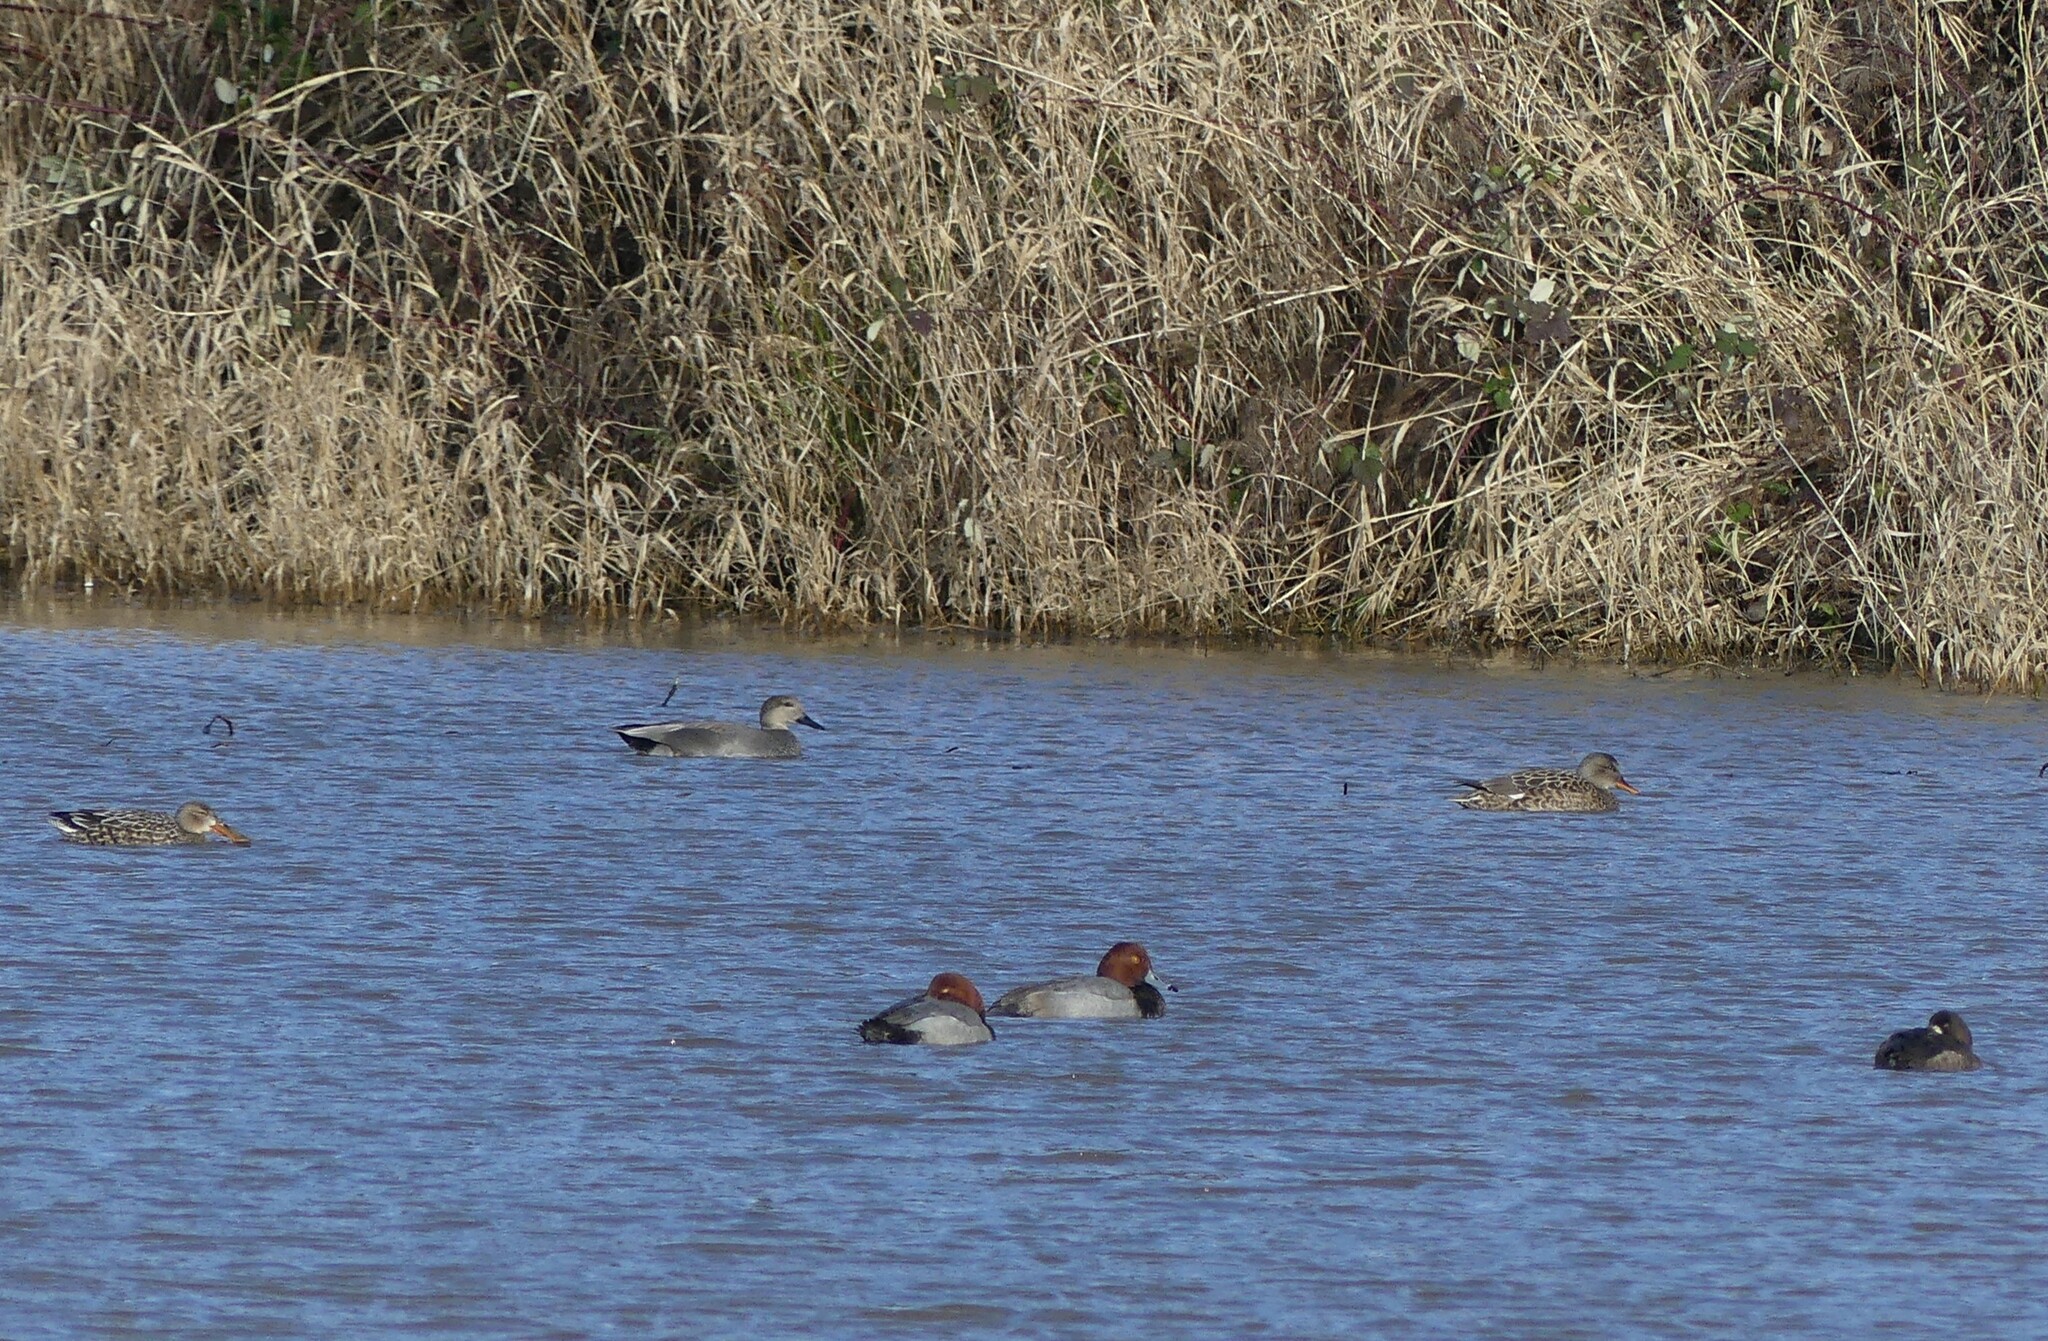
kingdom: Animalia
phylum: Chordata
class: Aves
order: Anseriformes
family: Anatidae
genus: Aythya
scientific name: Aythya americana
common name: Redhead
